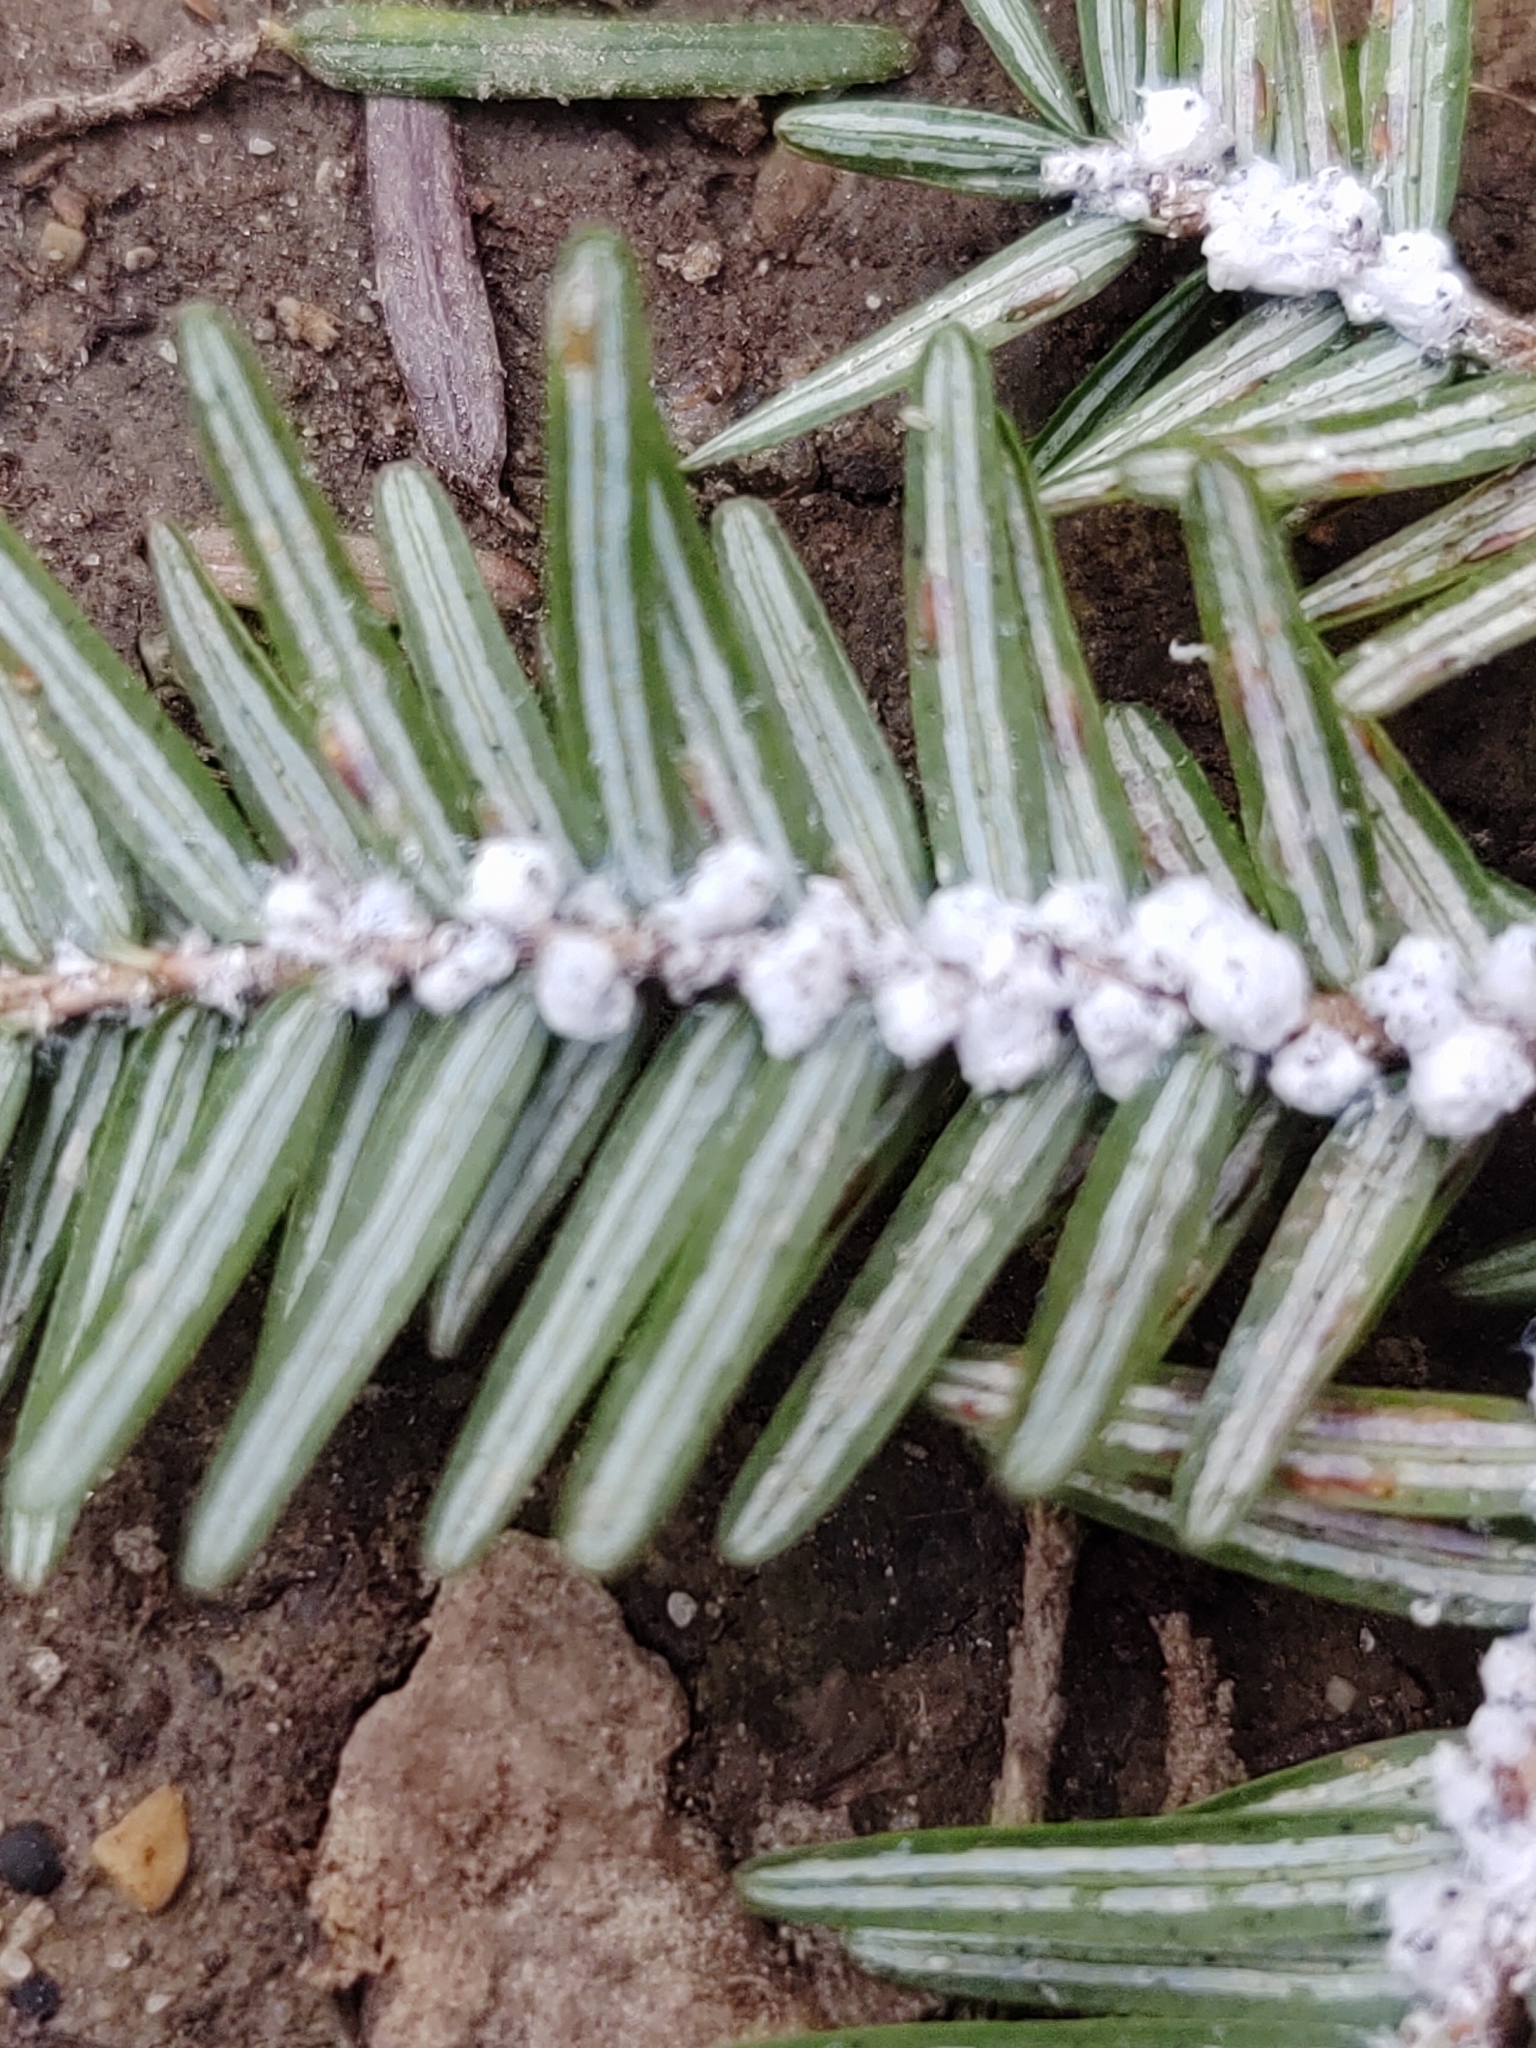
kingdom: Animalia
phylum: Arthropoda
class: Insecta
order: Hemiptera
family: Adelgidae
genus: Adelges
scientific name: Adelges tsugae
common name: Hemlock woolly adelgid
